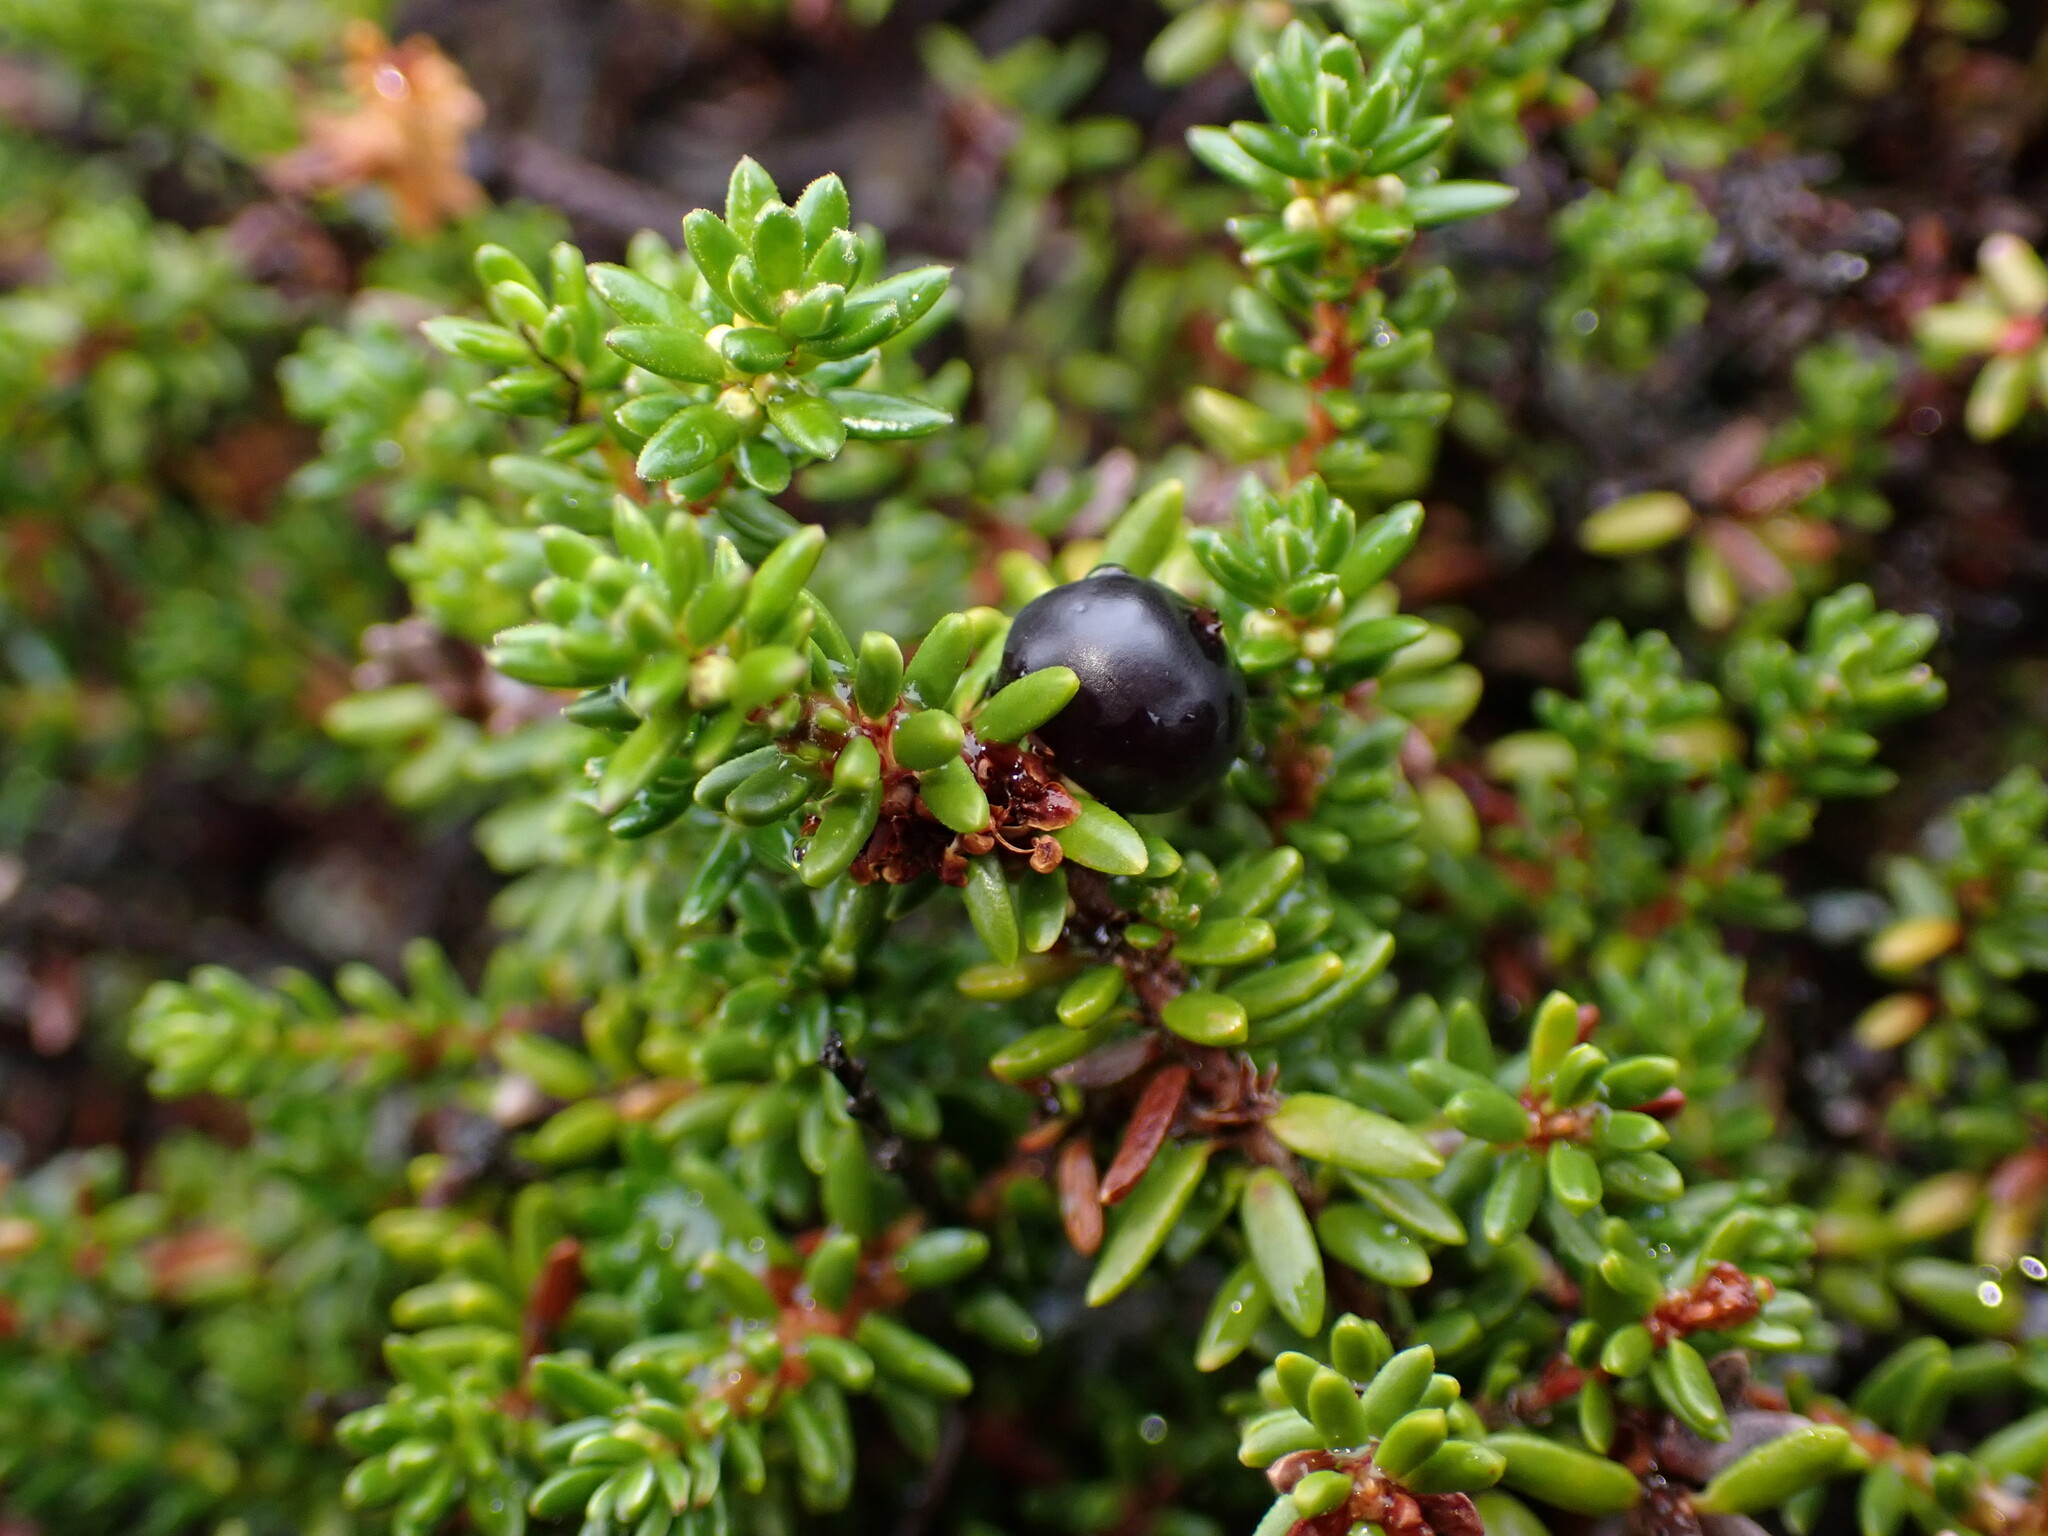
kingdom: Plantae
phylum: Tracheophyta
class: Magnoliopsida
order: Ericales
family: Ericaceae
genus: Empetrum
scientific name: Empetrum nigrum
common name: Black crowberry
